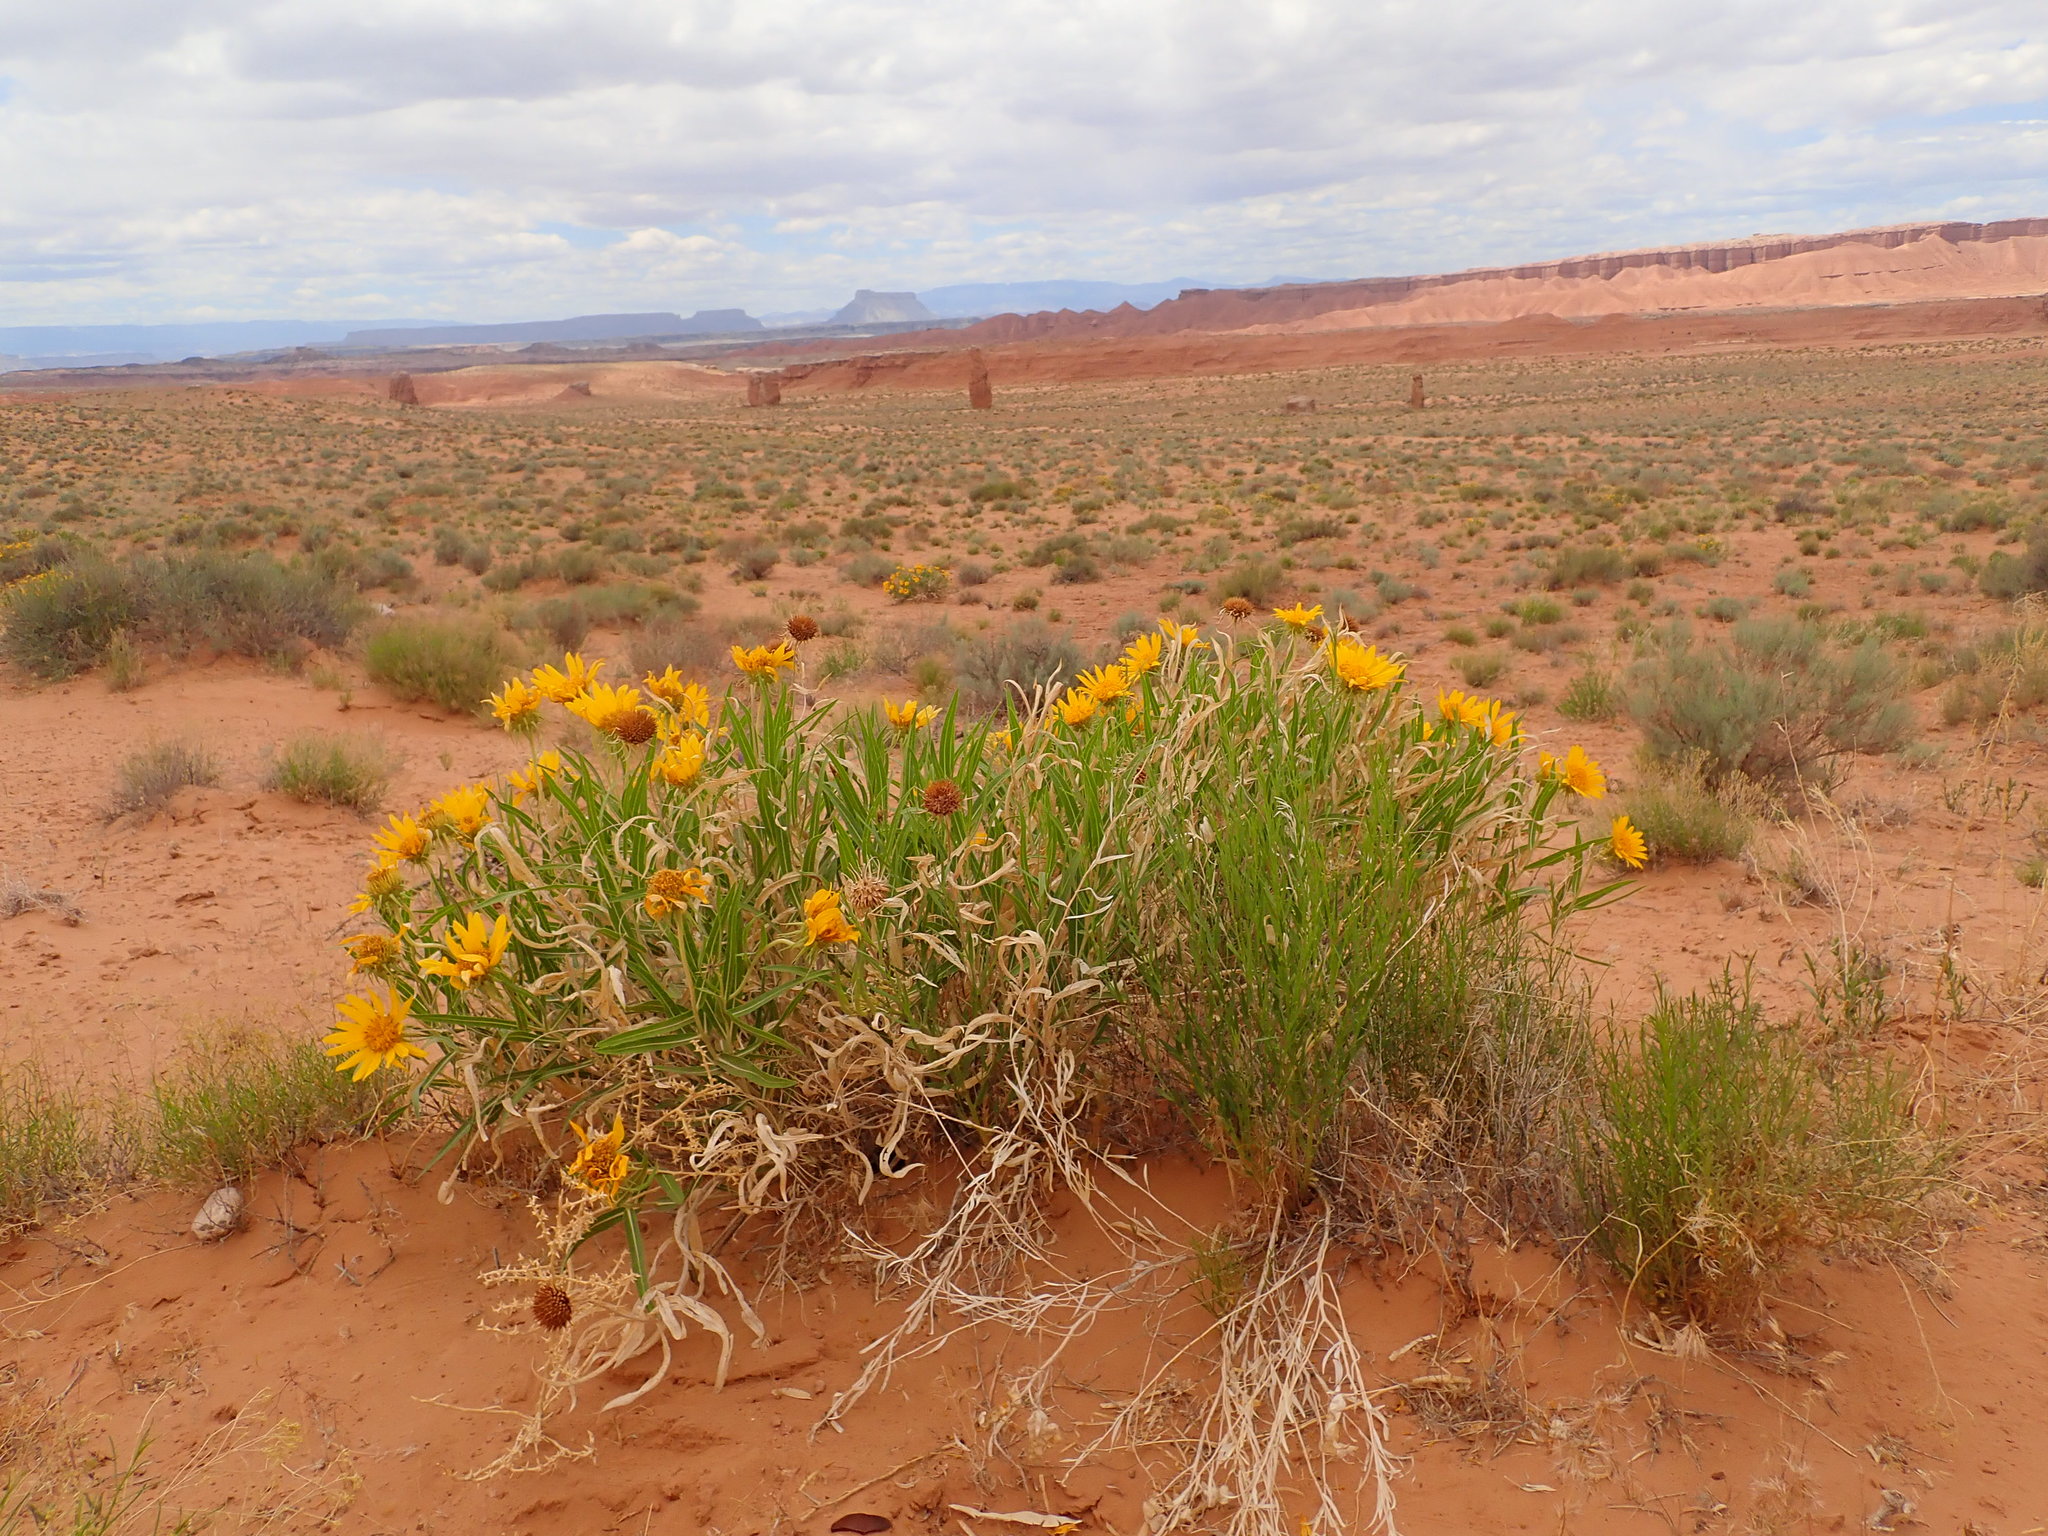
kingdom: Plantae
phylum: Tracheophyta
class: Magnoliopsida
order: Asterales
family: Asteraceae
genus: Scabrethia
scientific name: Scabrethia scabra
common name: Rough mules's-ears
